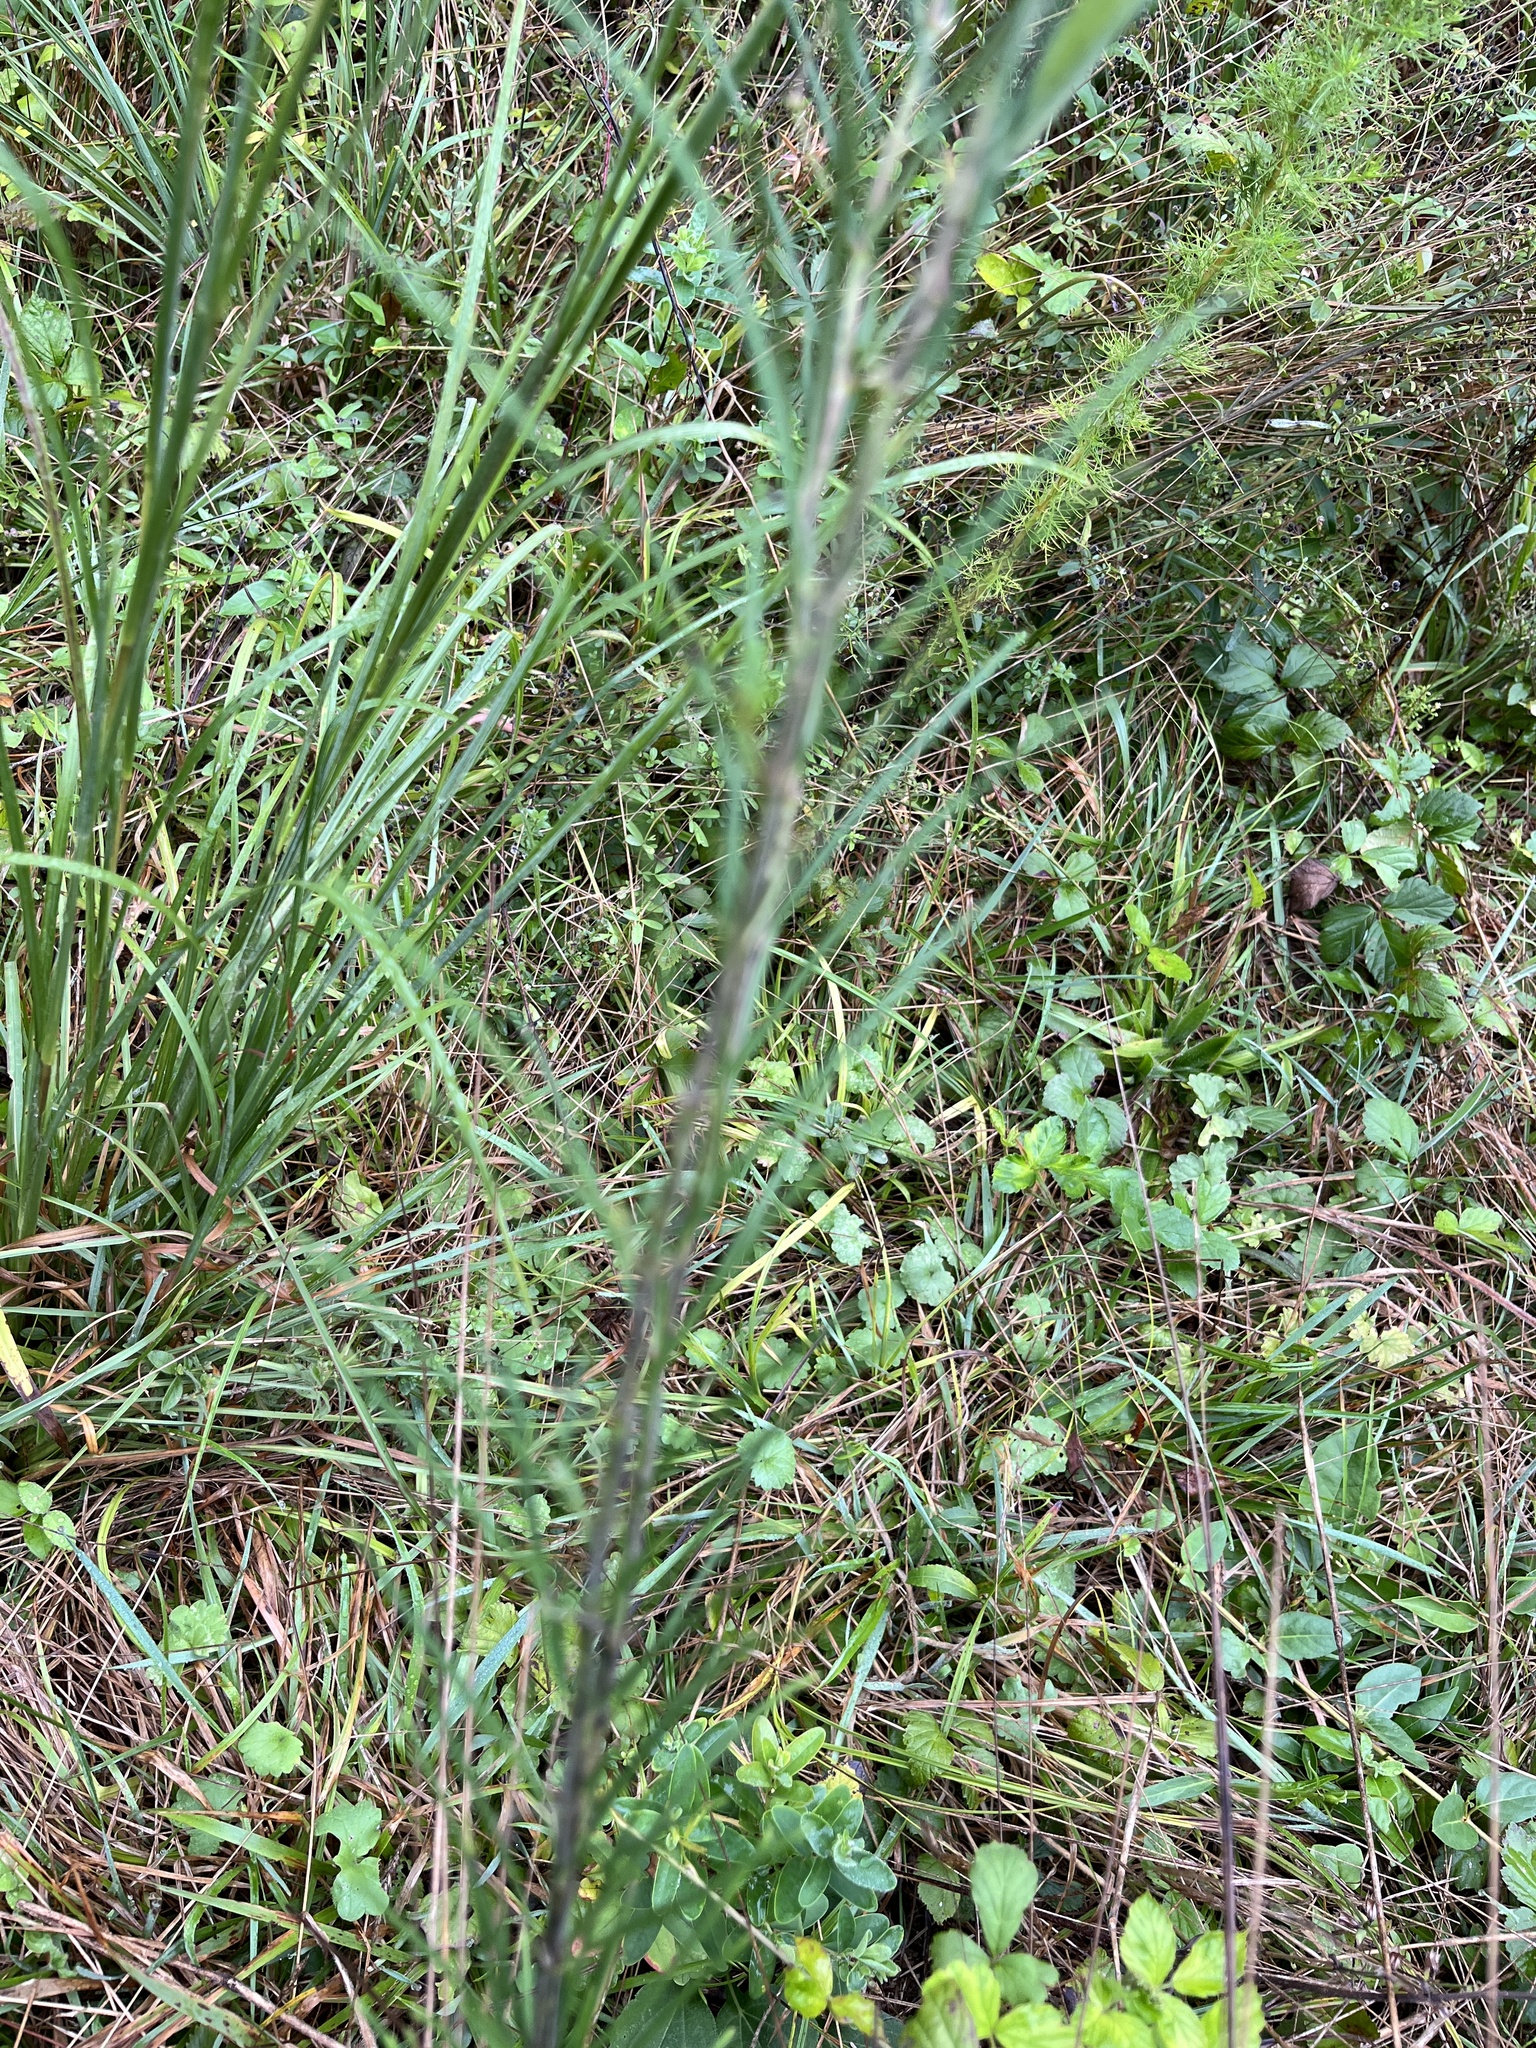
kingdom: Plantae
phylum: Tracheophyta
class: Magnoliopsida
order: Gentianales
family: Apocynaceae
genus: Asclepias
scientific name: Asclepias verticillata
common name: Eastern whorled milkweed
